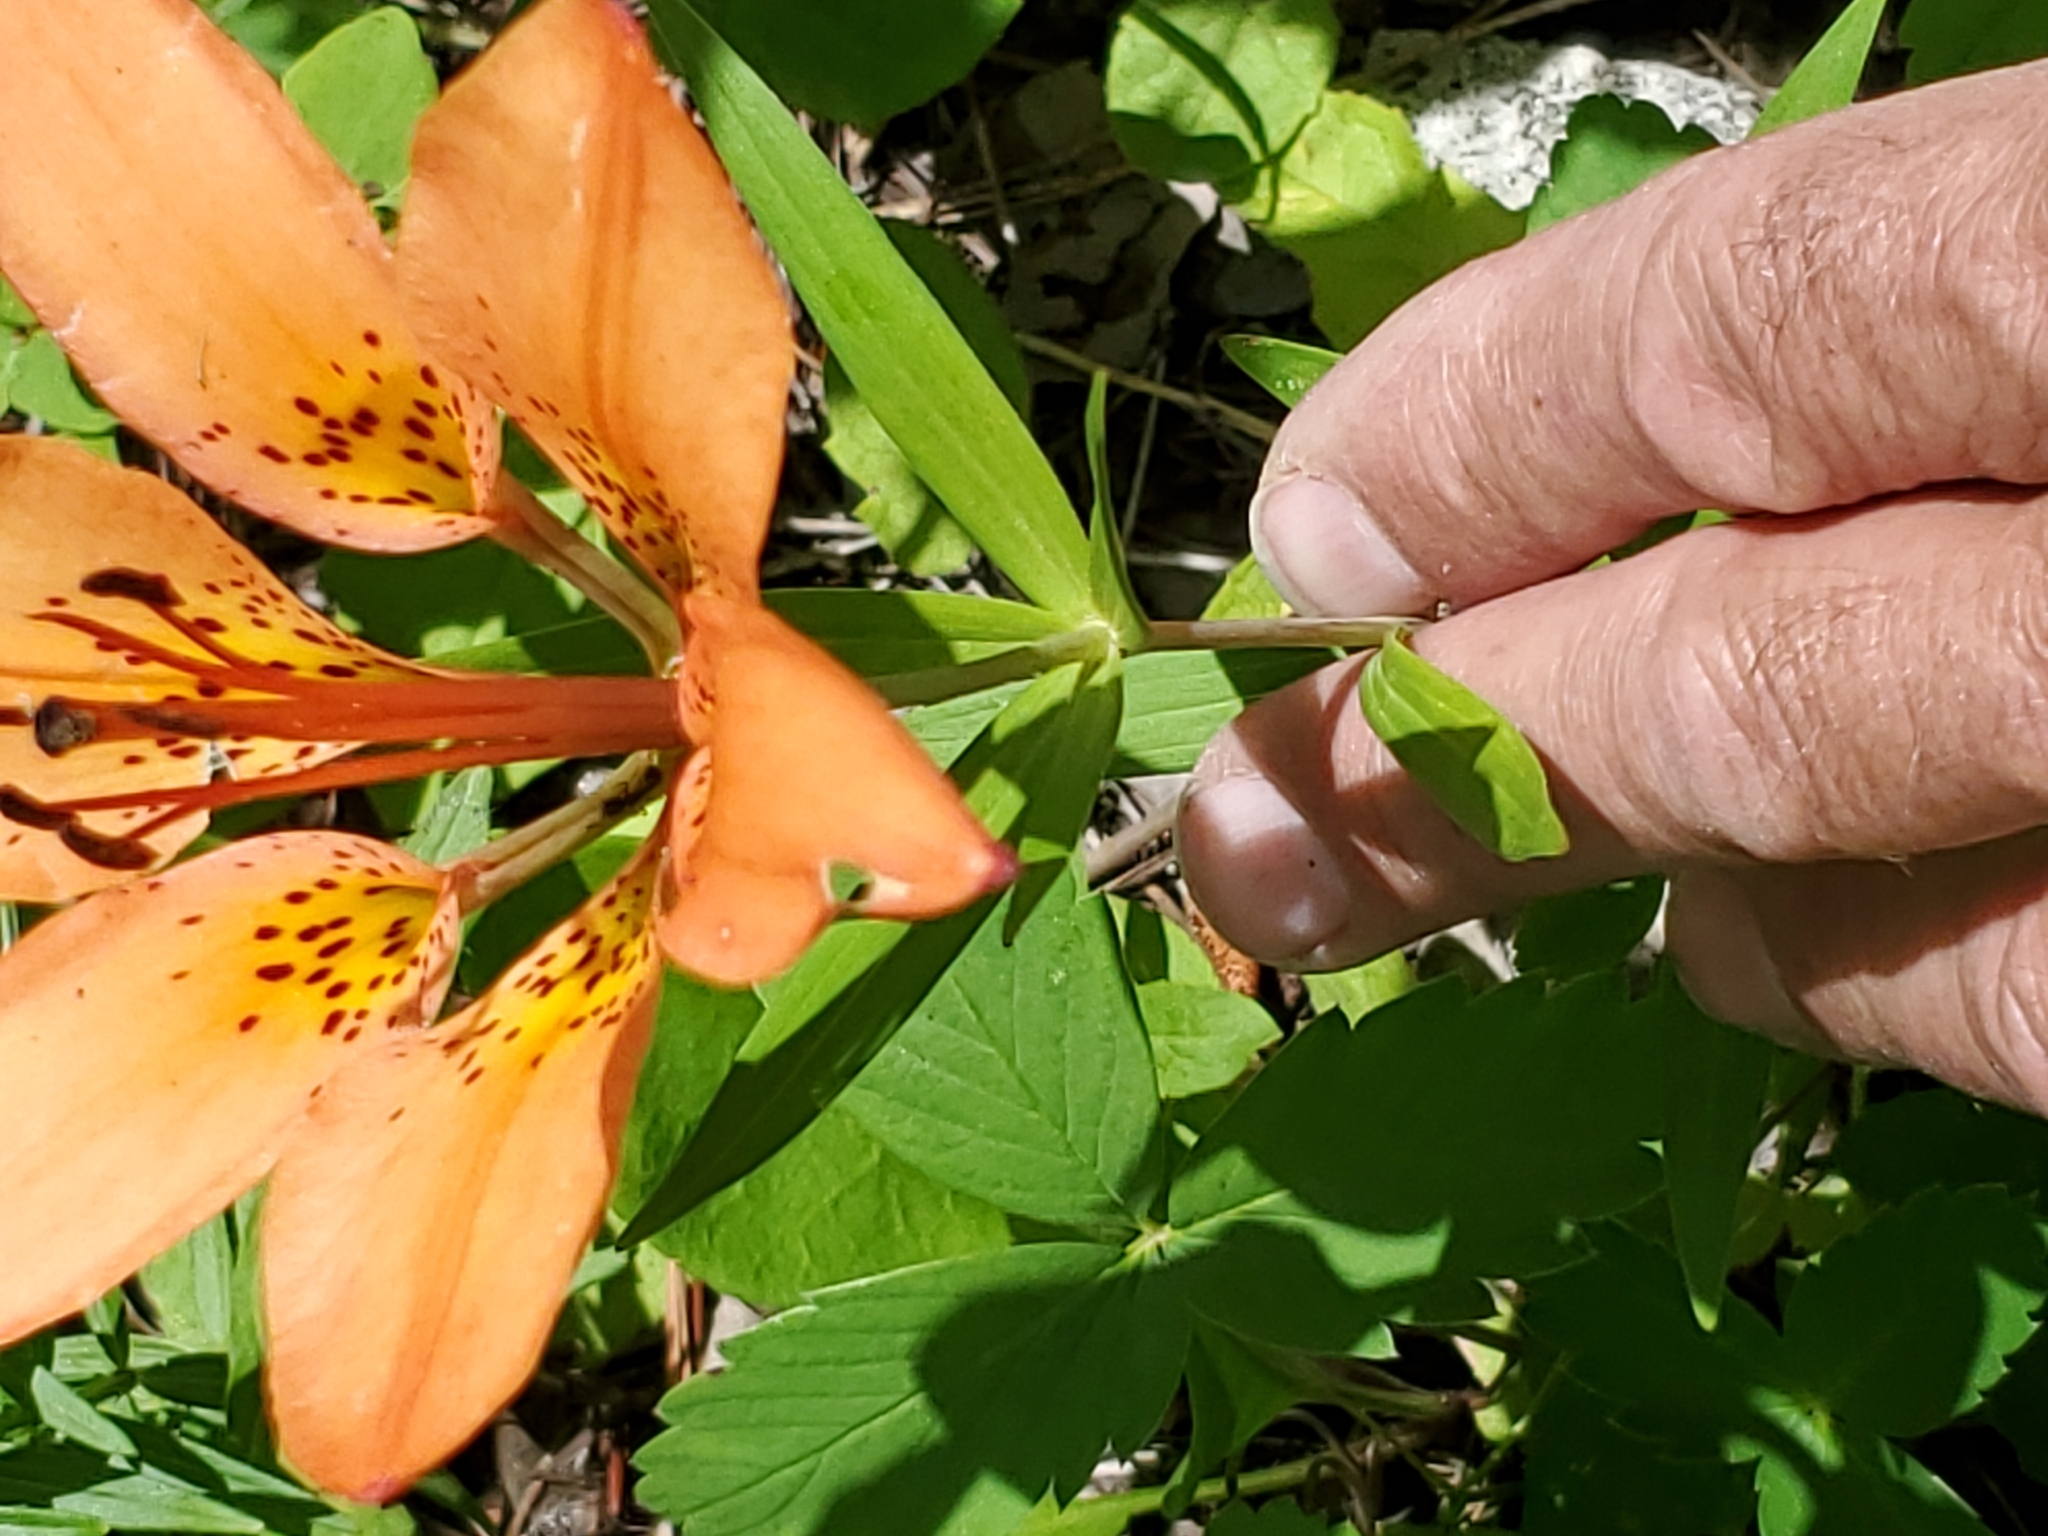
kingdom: Plantae
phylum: Tracheophyta
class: Liliopsida
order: Liliales
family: Liliaceae
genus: Lilium
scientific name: Lilium philadelphicum
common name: Red lily
